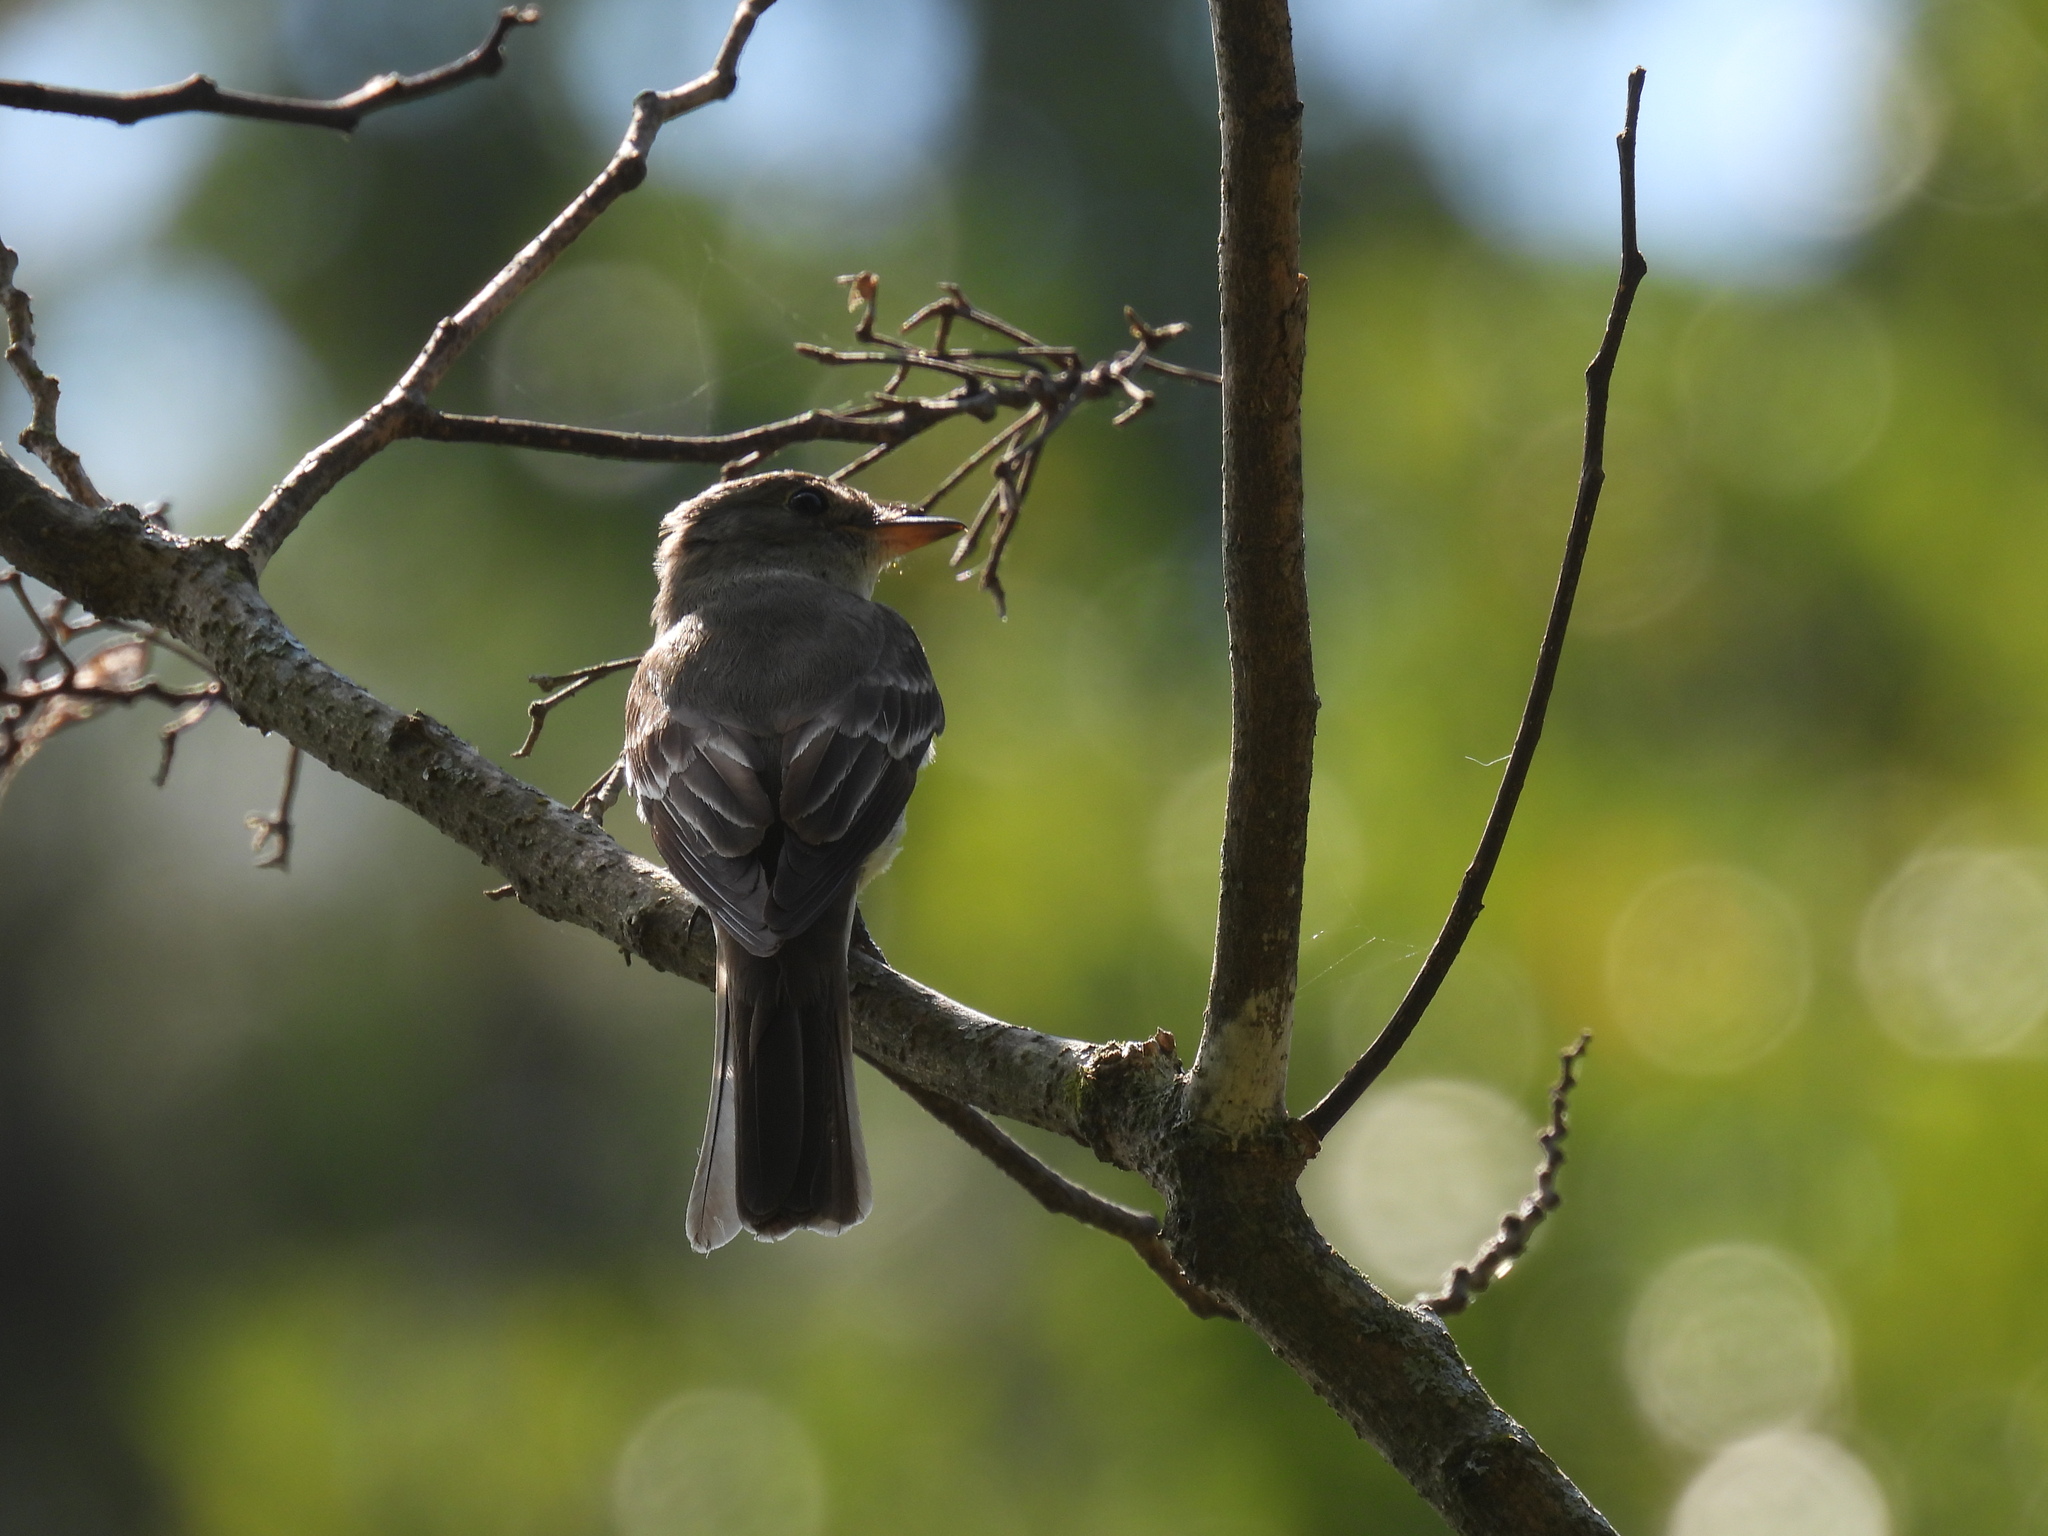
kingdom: Animalia
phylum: Chordata
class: Aves
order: Passeriformes
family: Tyrannidae
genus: Contopus
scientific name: Contopus virens
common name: Eastern wood-pewee
